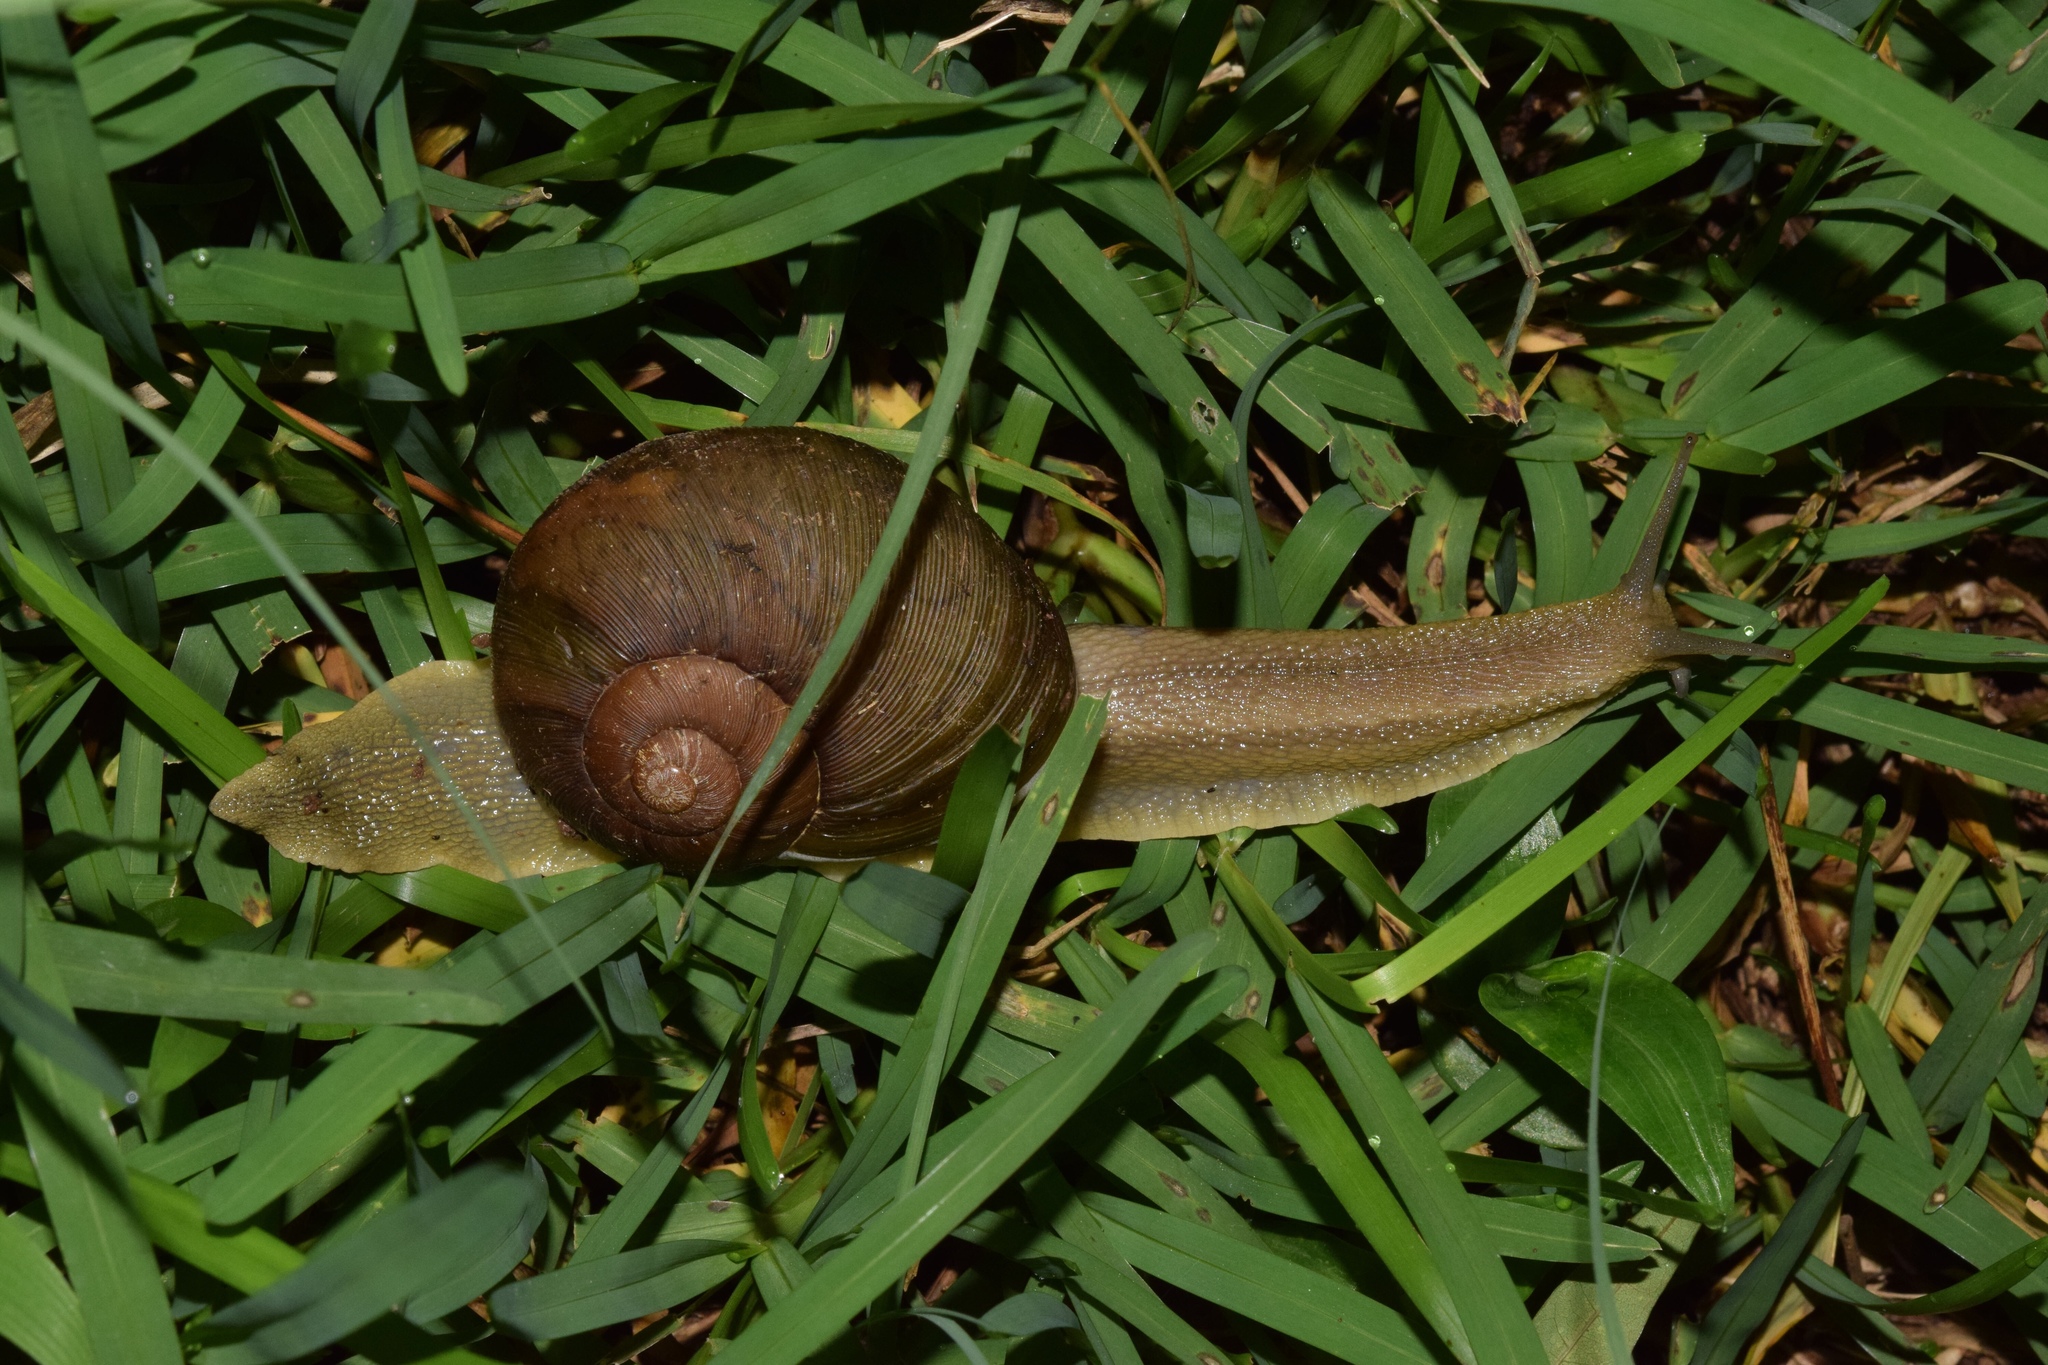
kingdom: Animalia
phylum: Mollusca
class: Gastropoda
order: Stylommatophora
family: Rhytididae
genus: Natalina
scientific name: Natalina cafra
